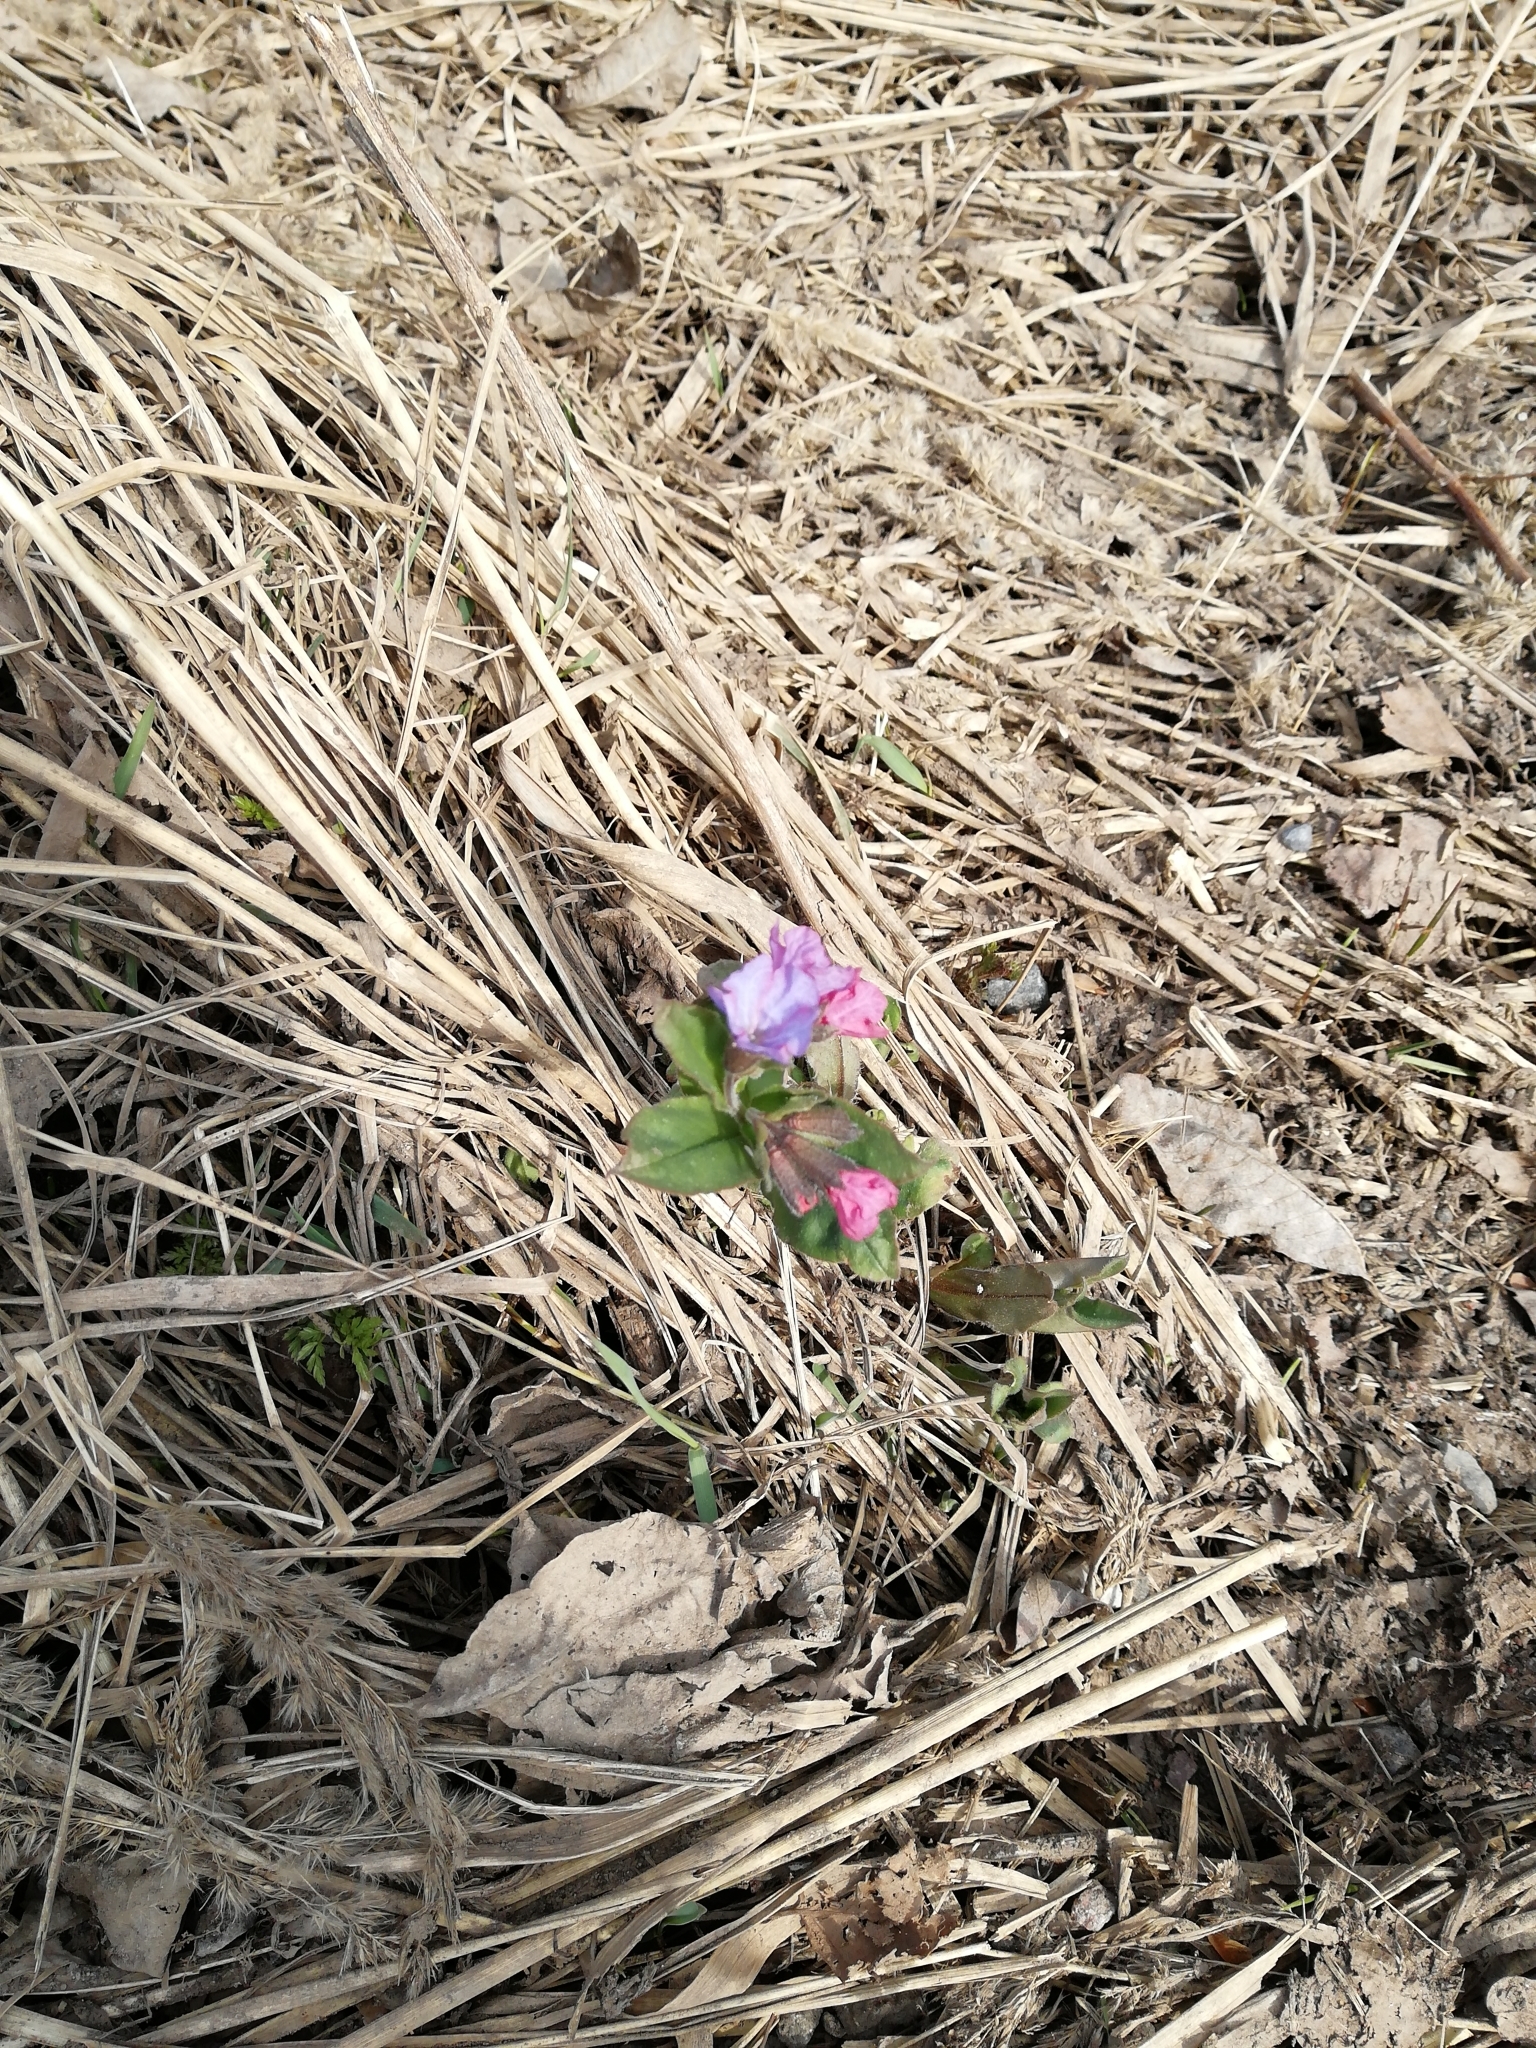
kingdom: Plantae
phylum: Tracheophyta
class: Magnoliopsida
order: Boraginales
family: Boraginaceae
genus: Pulmonaria
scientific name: Pulmonaria obscura
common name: Suffolk lungwort
